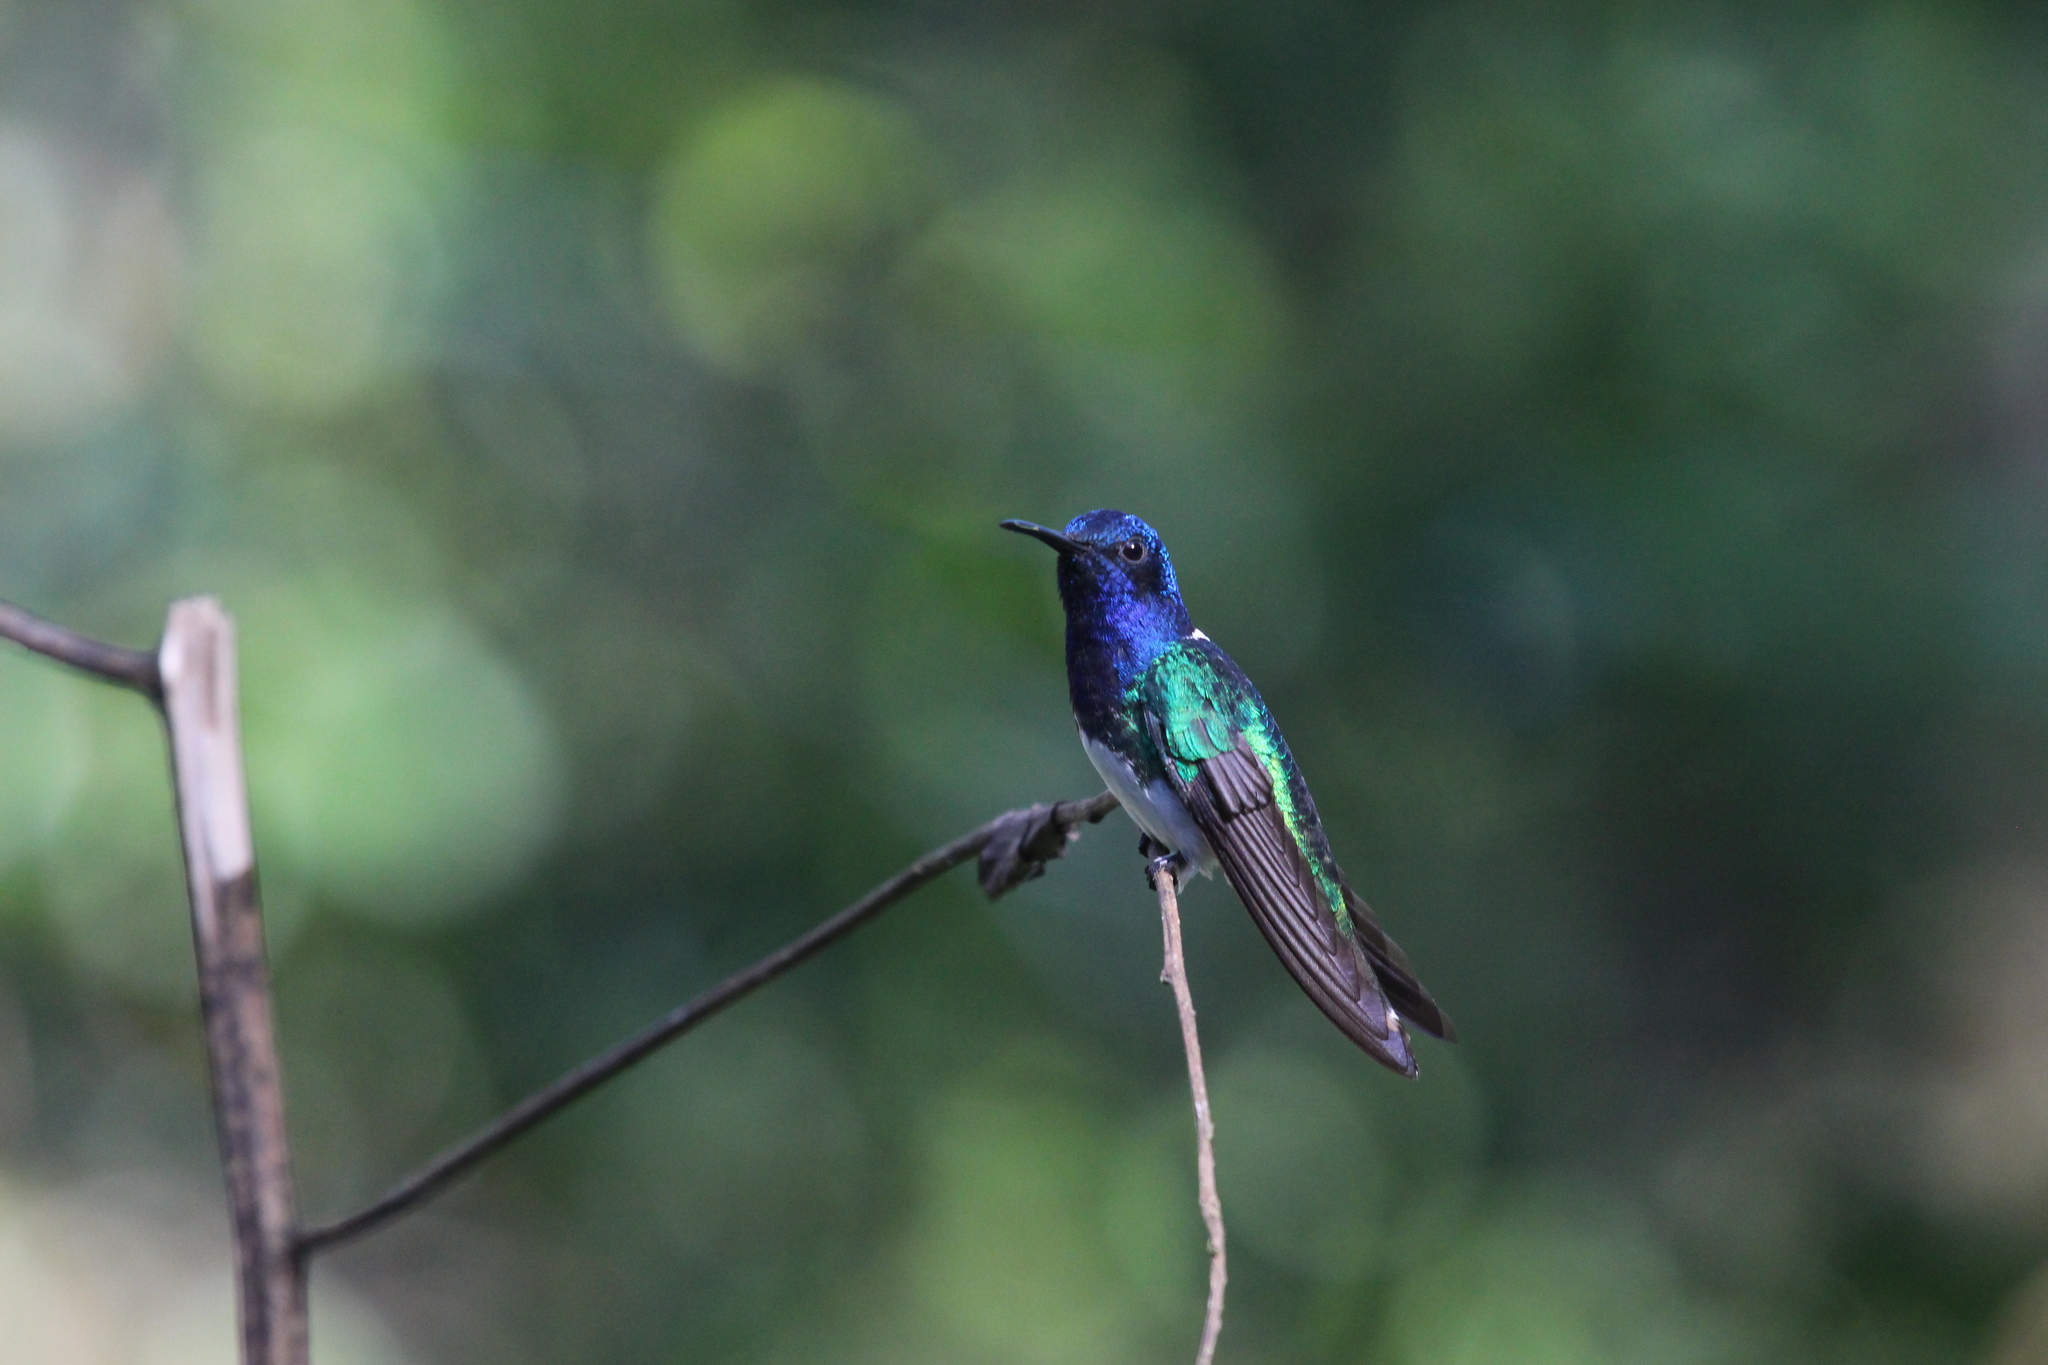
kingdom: Animalia
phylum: Chordata
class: Aves
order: Apodiformes
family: Trochilidae
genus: Florisuga
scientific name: Florisuga mellivora
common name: White-necked jacobin
